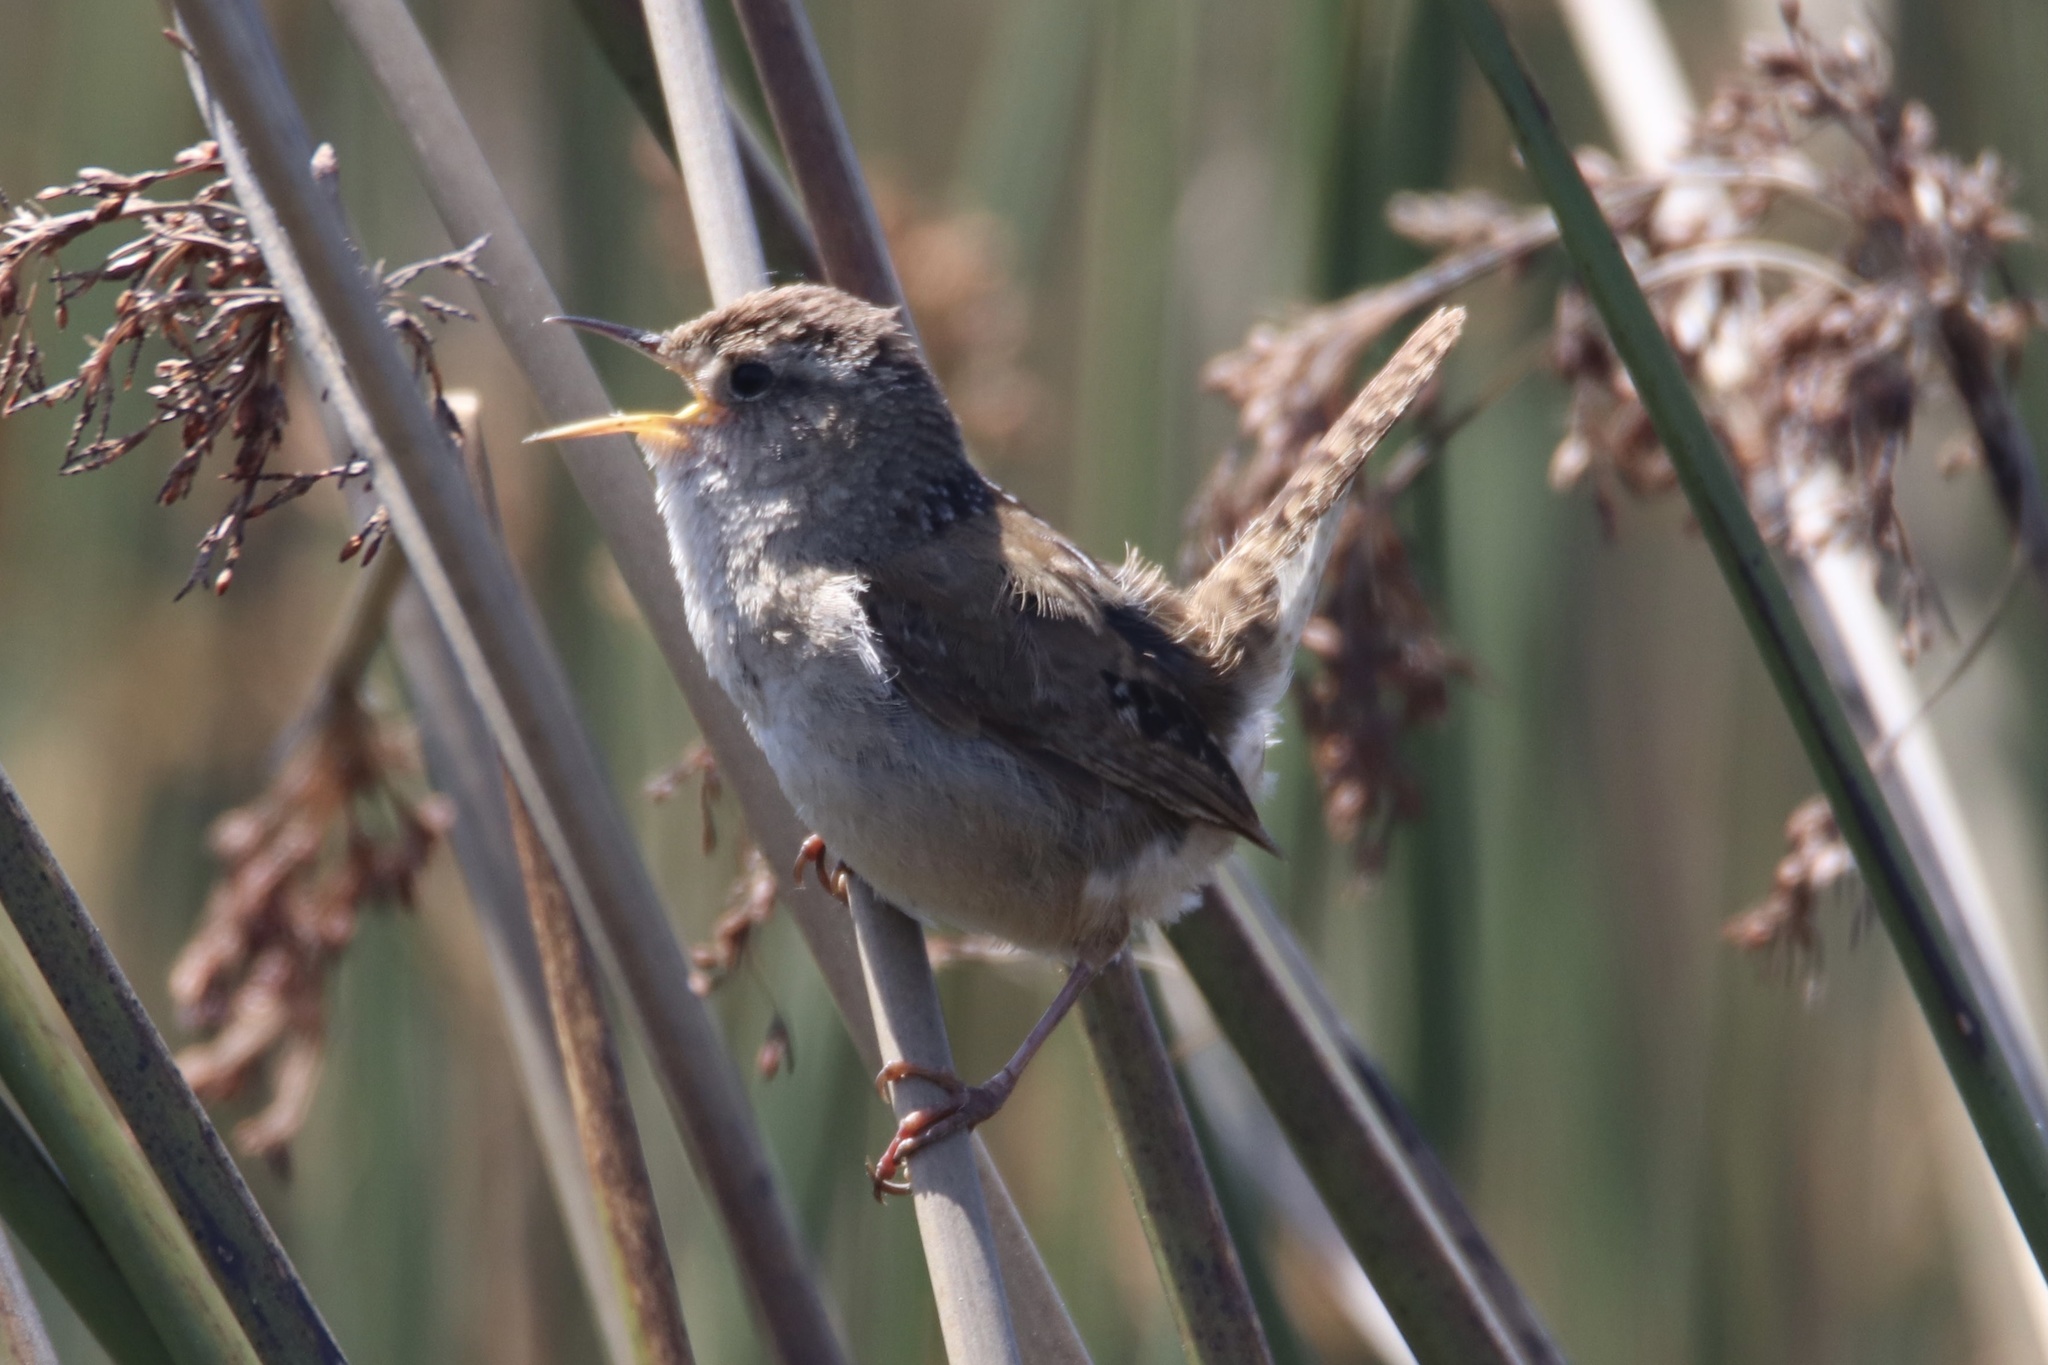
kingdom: Animalia
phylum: Chordata
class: Aves
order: Passeriformes
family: Troglodytidae
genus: Cistothorus
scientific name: Cistothorus palustris
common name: Marsh wren
